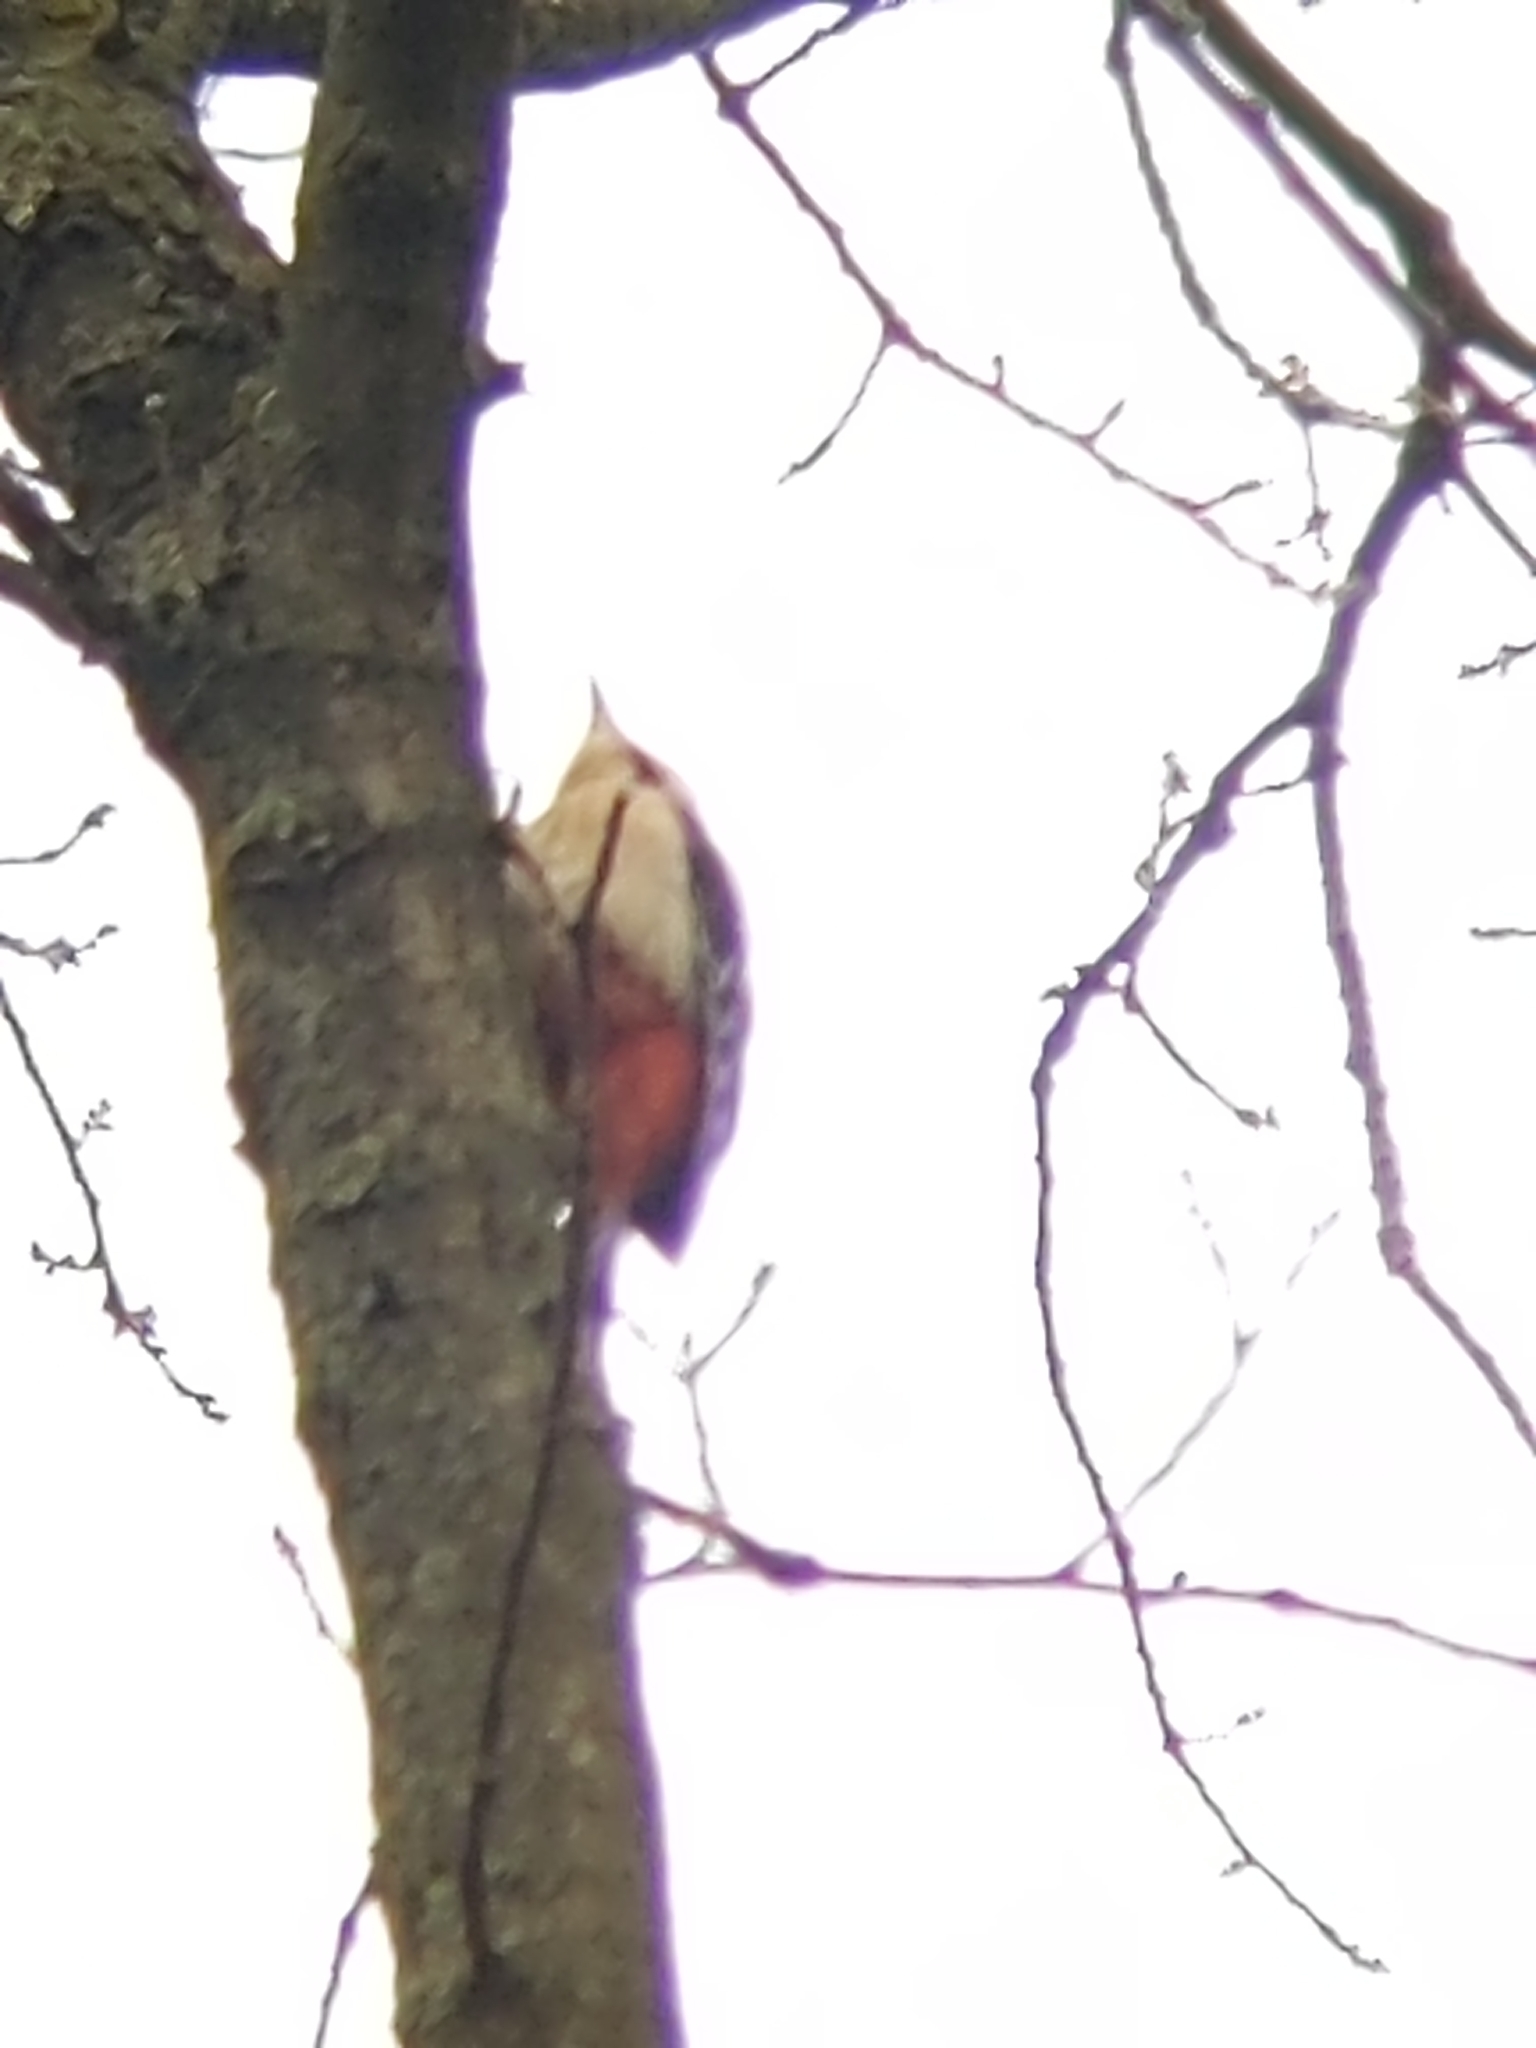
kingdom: Animalia
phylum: Chordata
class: Aves
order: Piciformes
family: Picidae
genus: Dendrocopos
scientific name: Dendrocopos major
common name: Great spotted woodpecker
